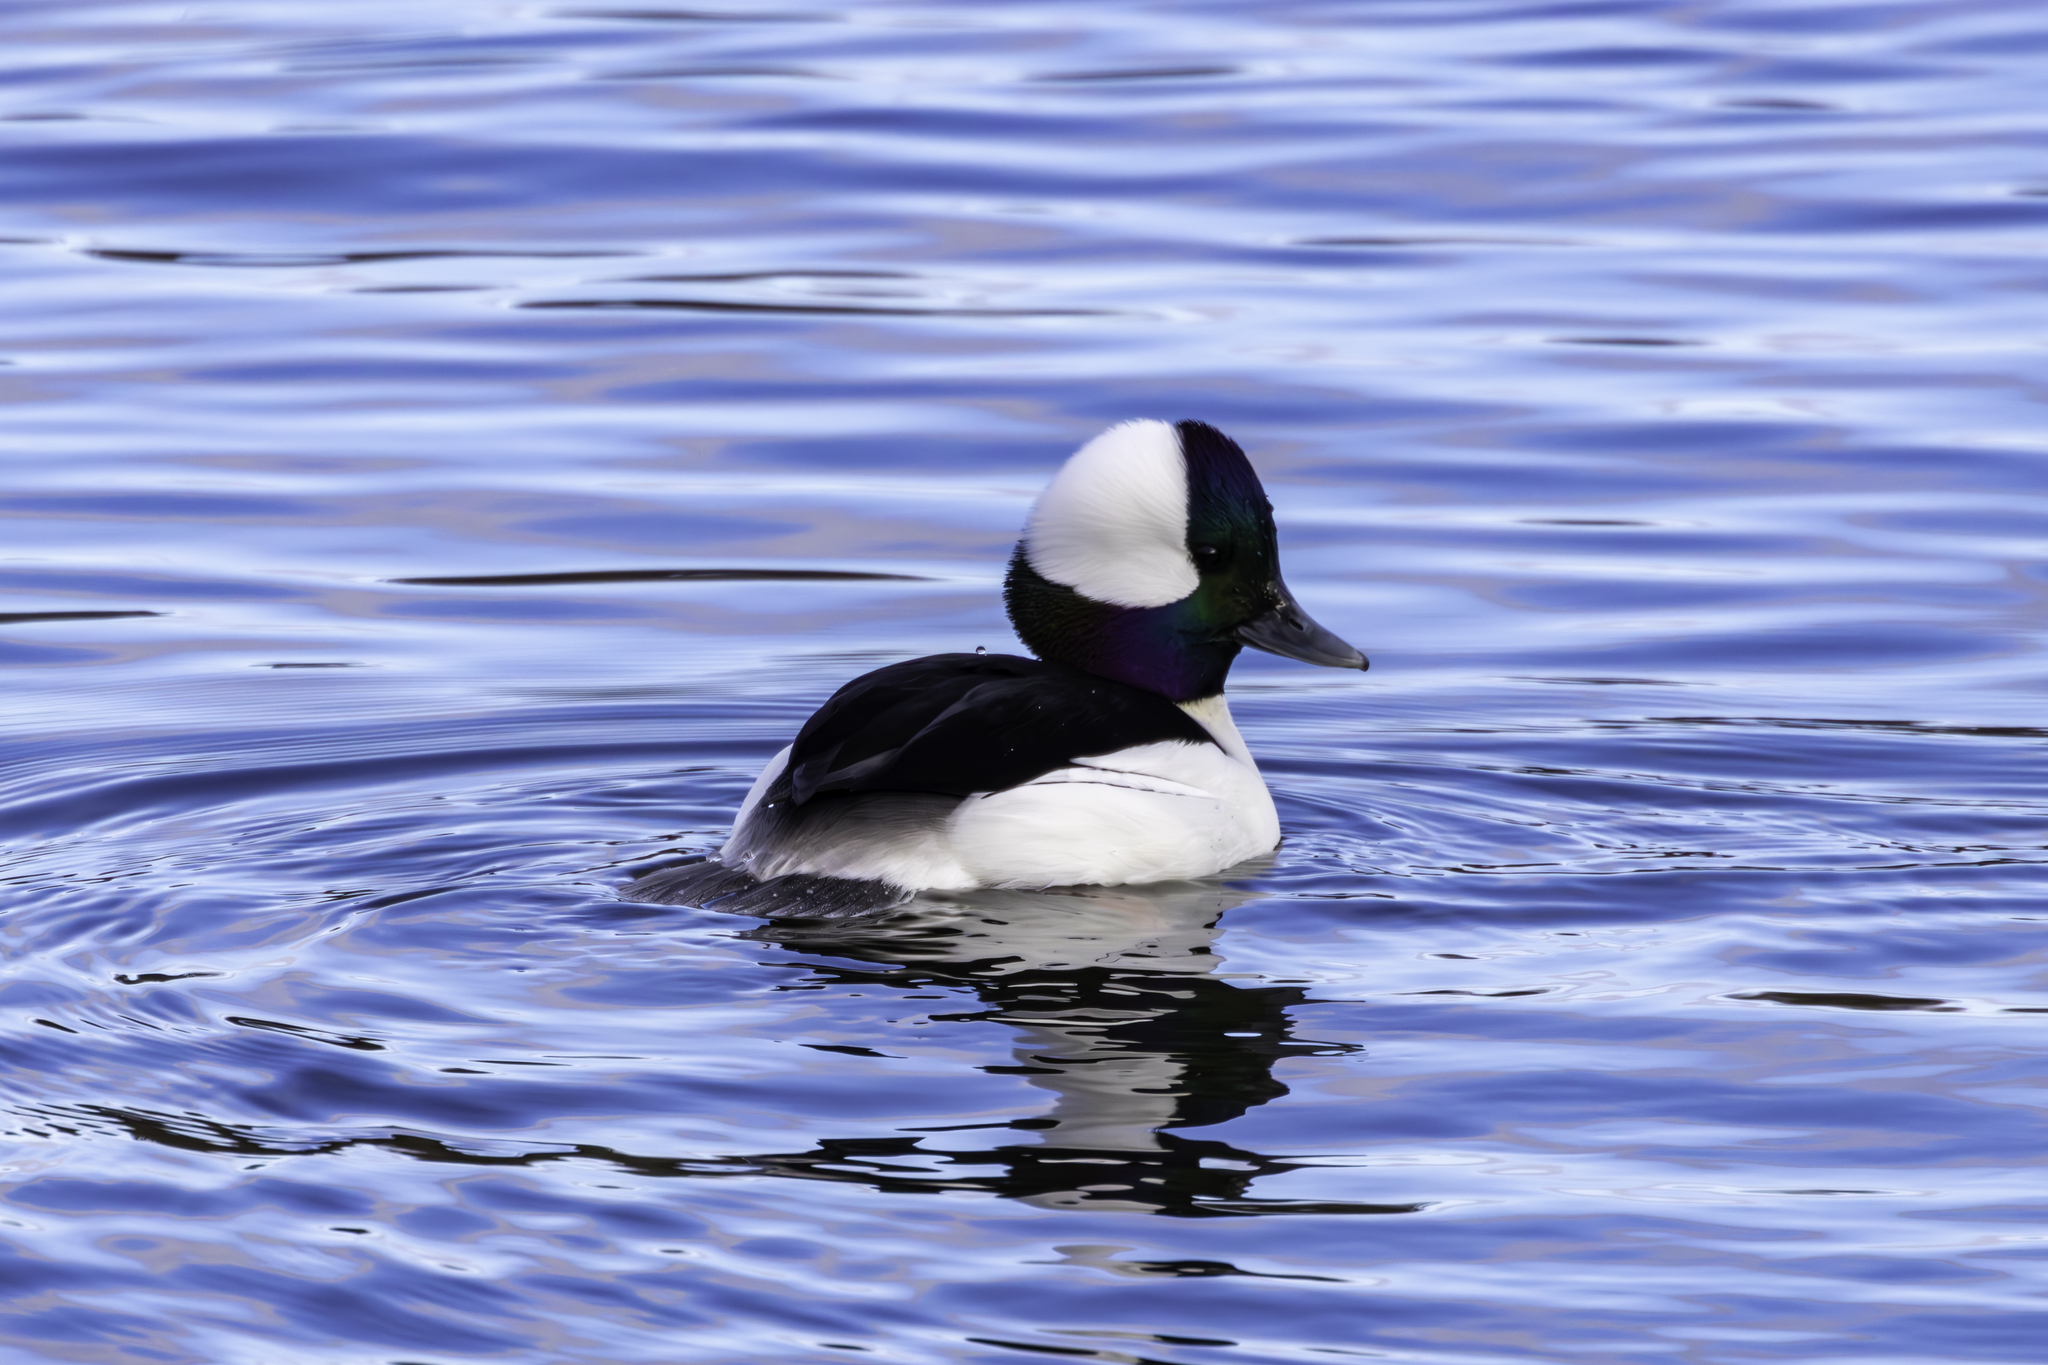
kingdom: Animalia
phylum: Chordata
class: Aves
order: Anseriformes
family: Anatidae
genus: Bucephala
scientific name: Bucephala albeola
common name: Bufflehead
